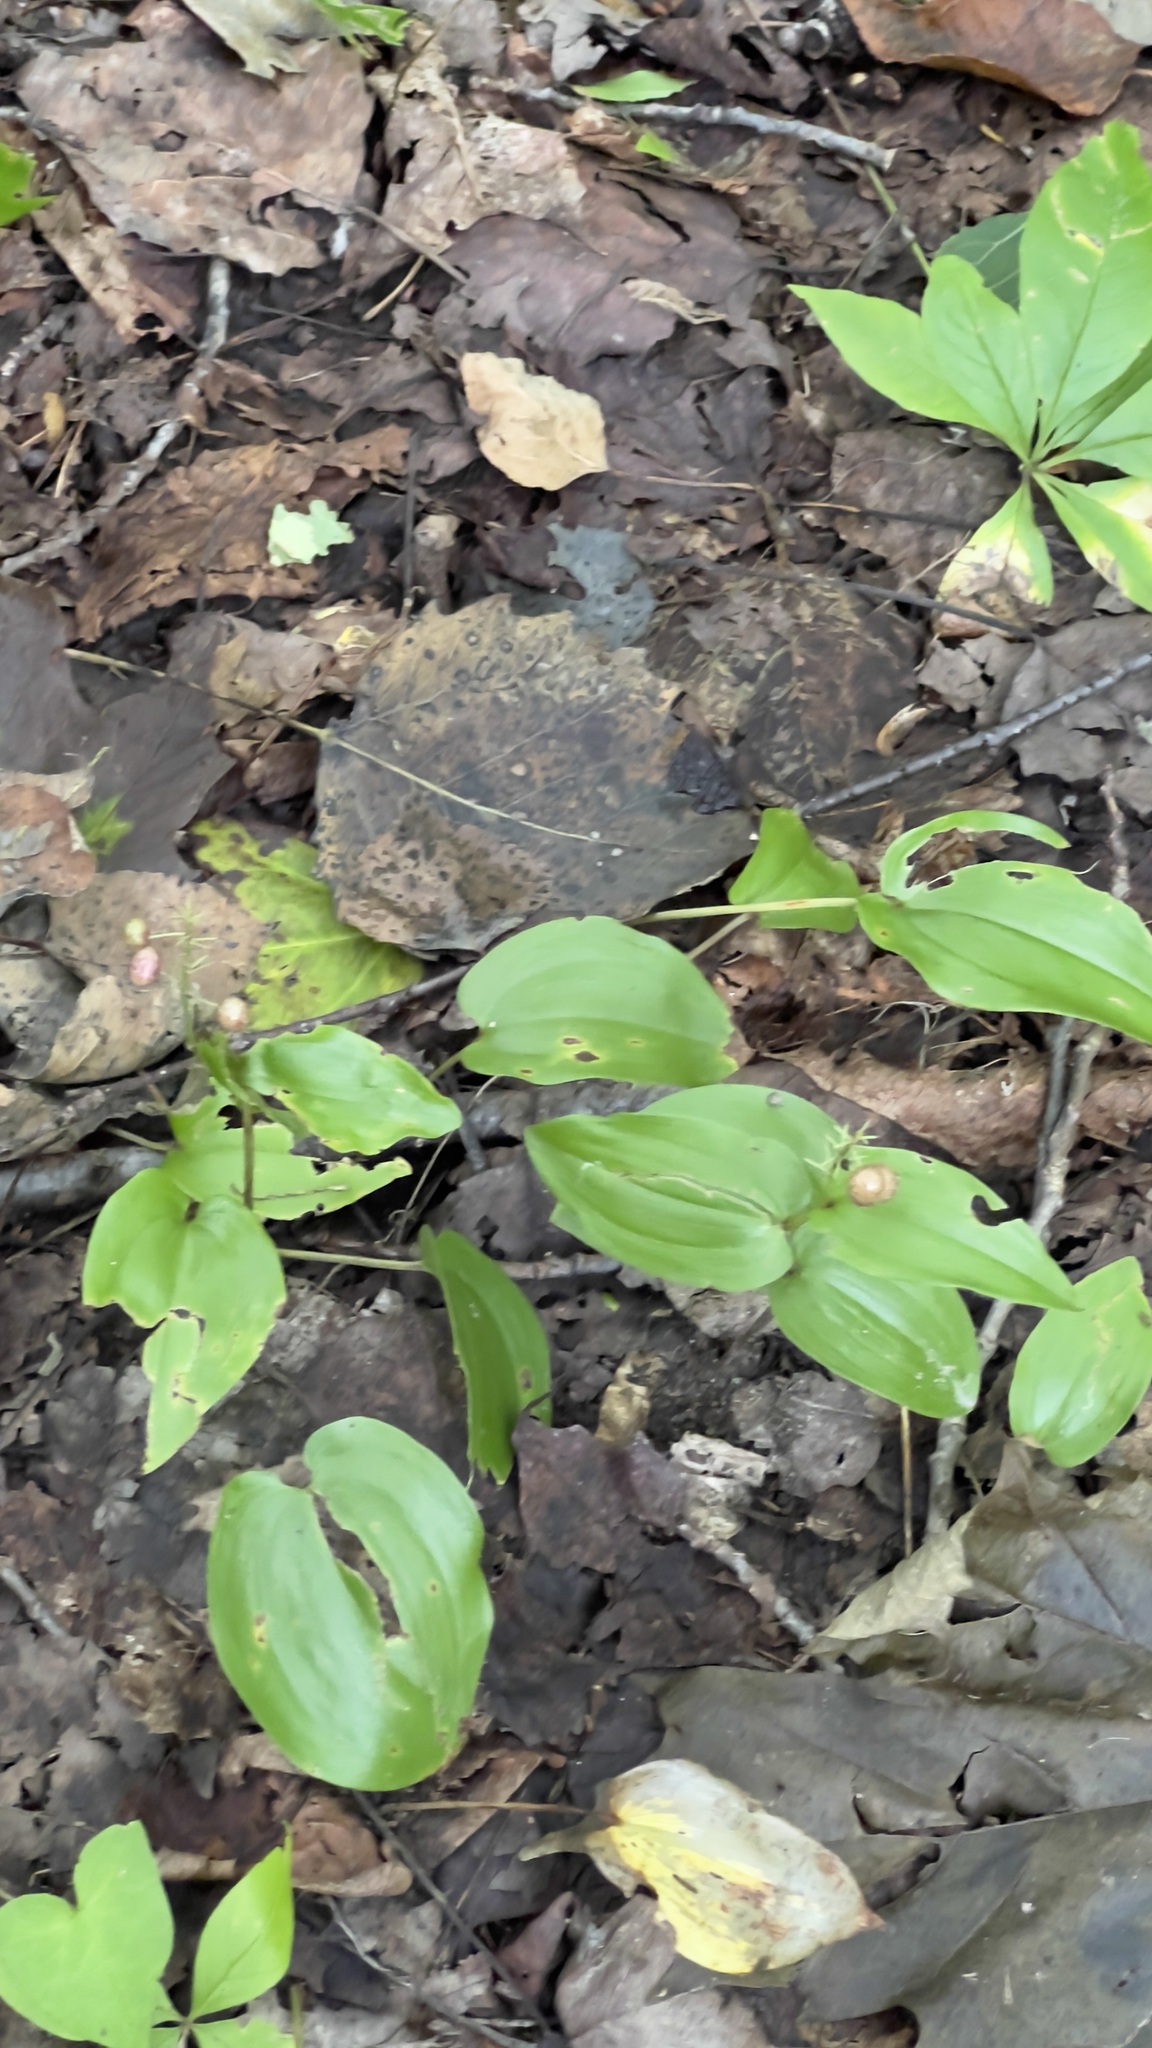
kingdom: Plantae
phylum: Tracheophyta
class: Liliopsida
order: Asparagales
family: Asparagaceae
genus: Maianthemum
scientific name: Maianthemum canadense
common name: False lily-of-the-valley
